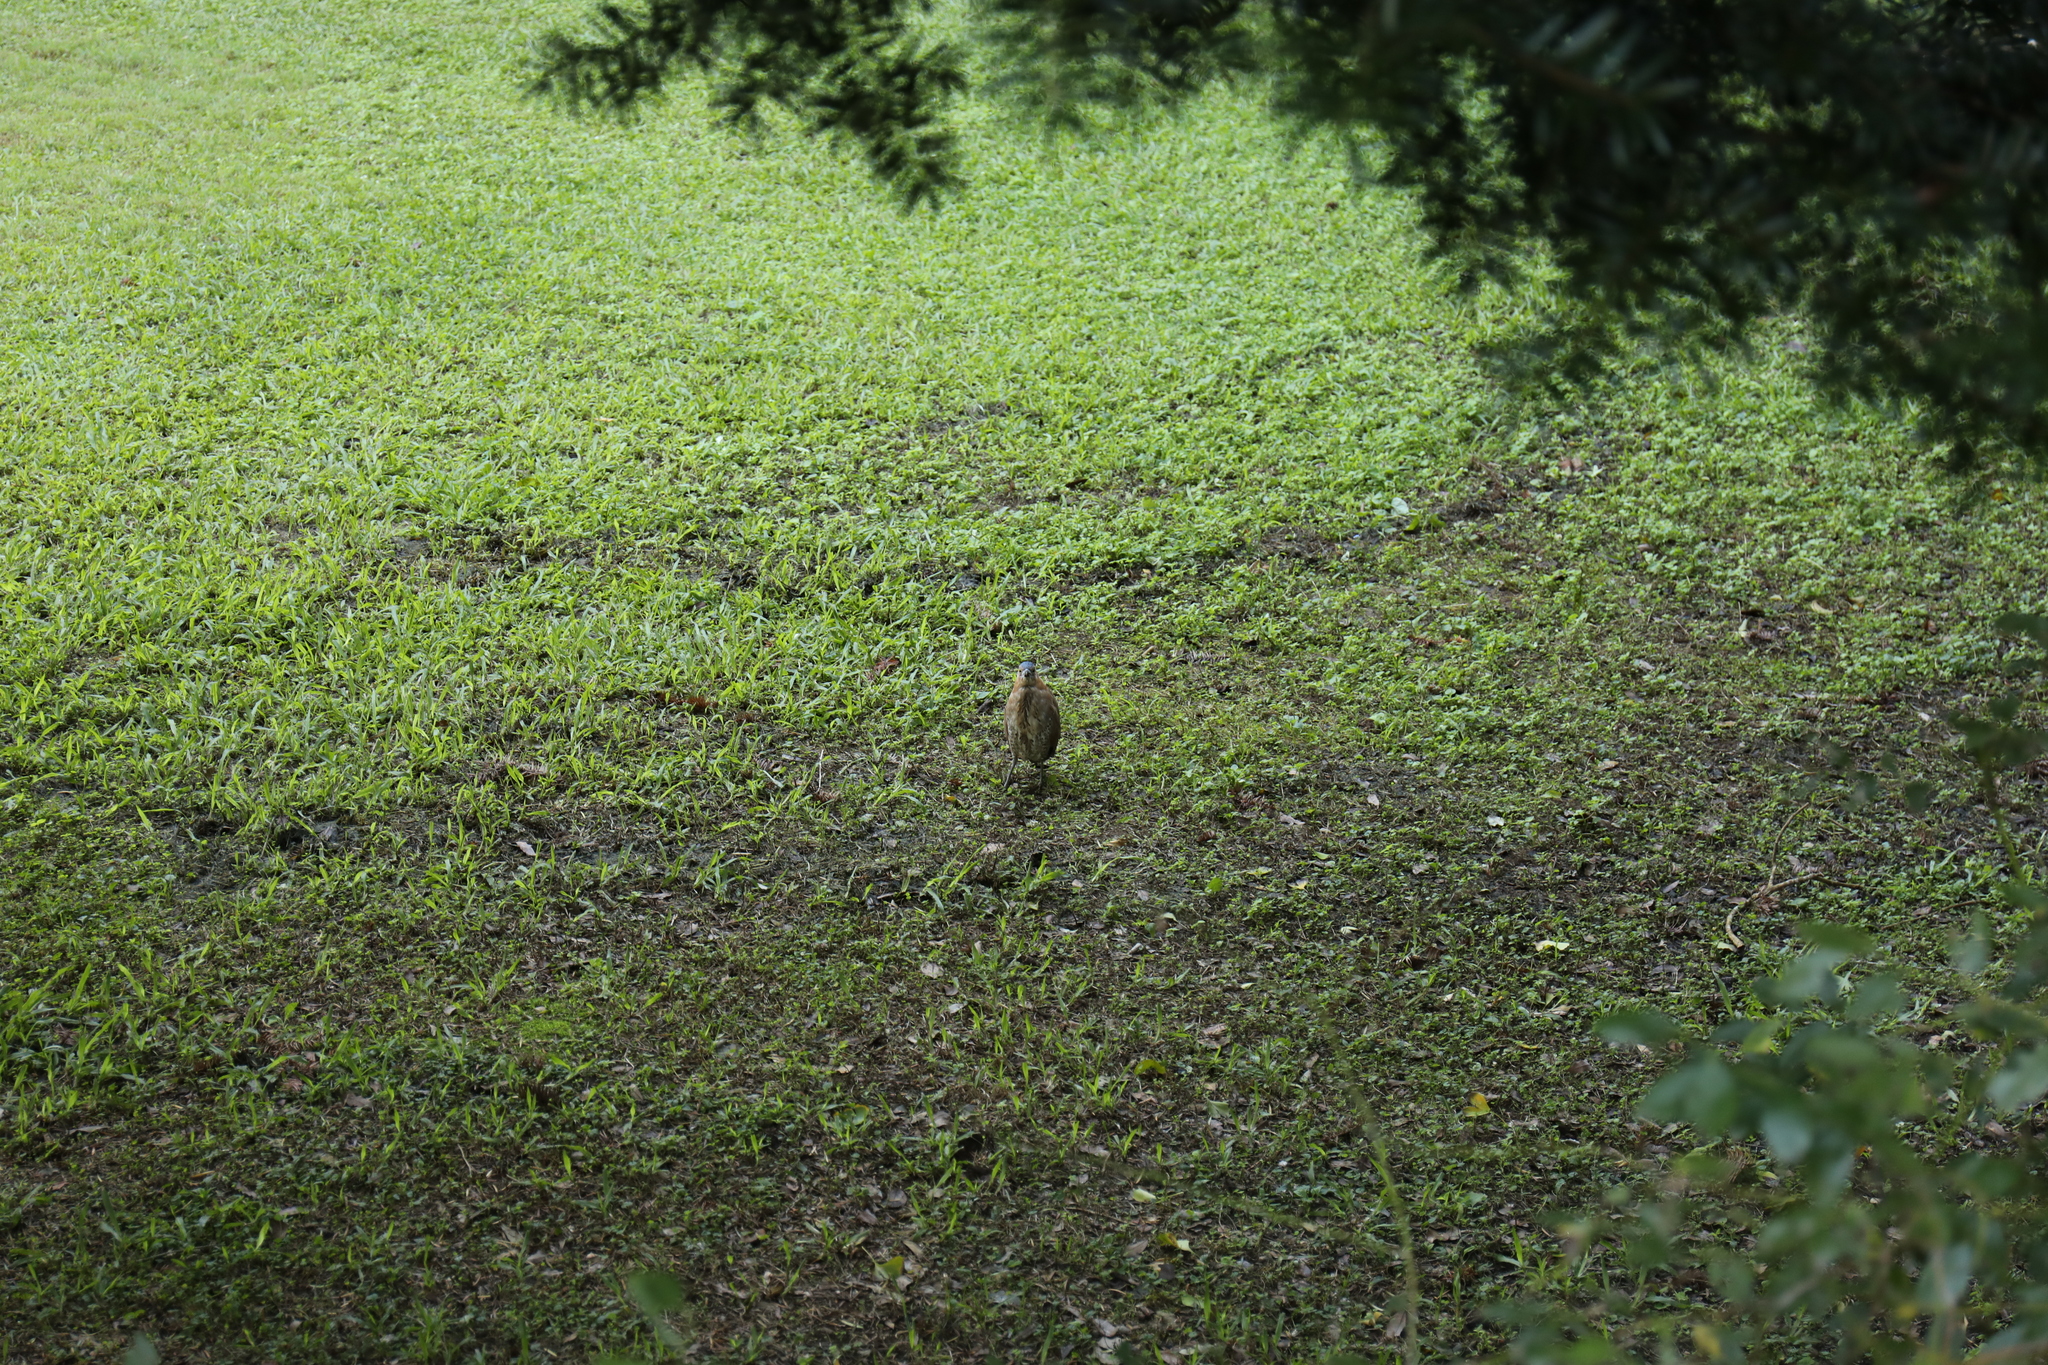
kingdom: Animalia
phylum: Chordata
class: Aves
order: Pelecaniformes
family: Ardeidae
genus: Gorsachius
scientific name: Gorsachius melanolophus
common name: Malayan night heron
